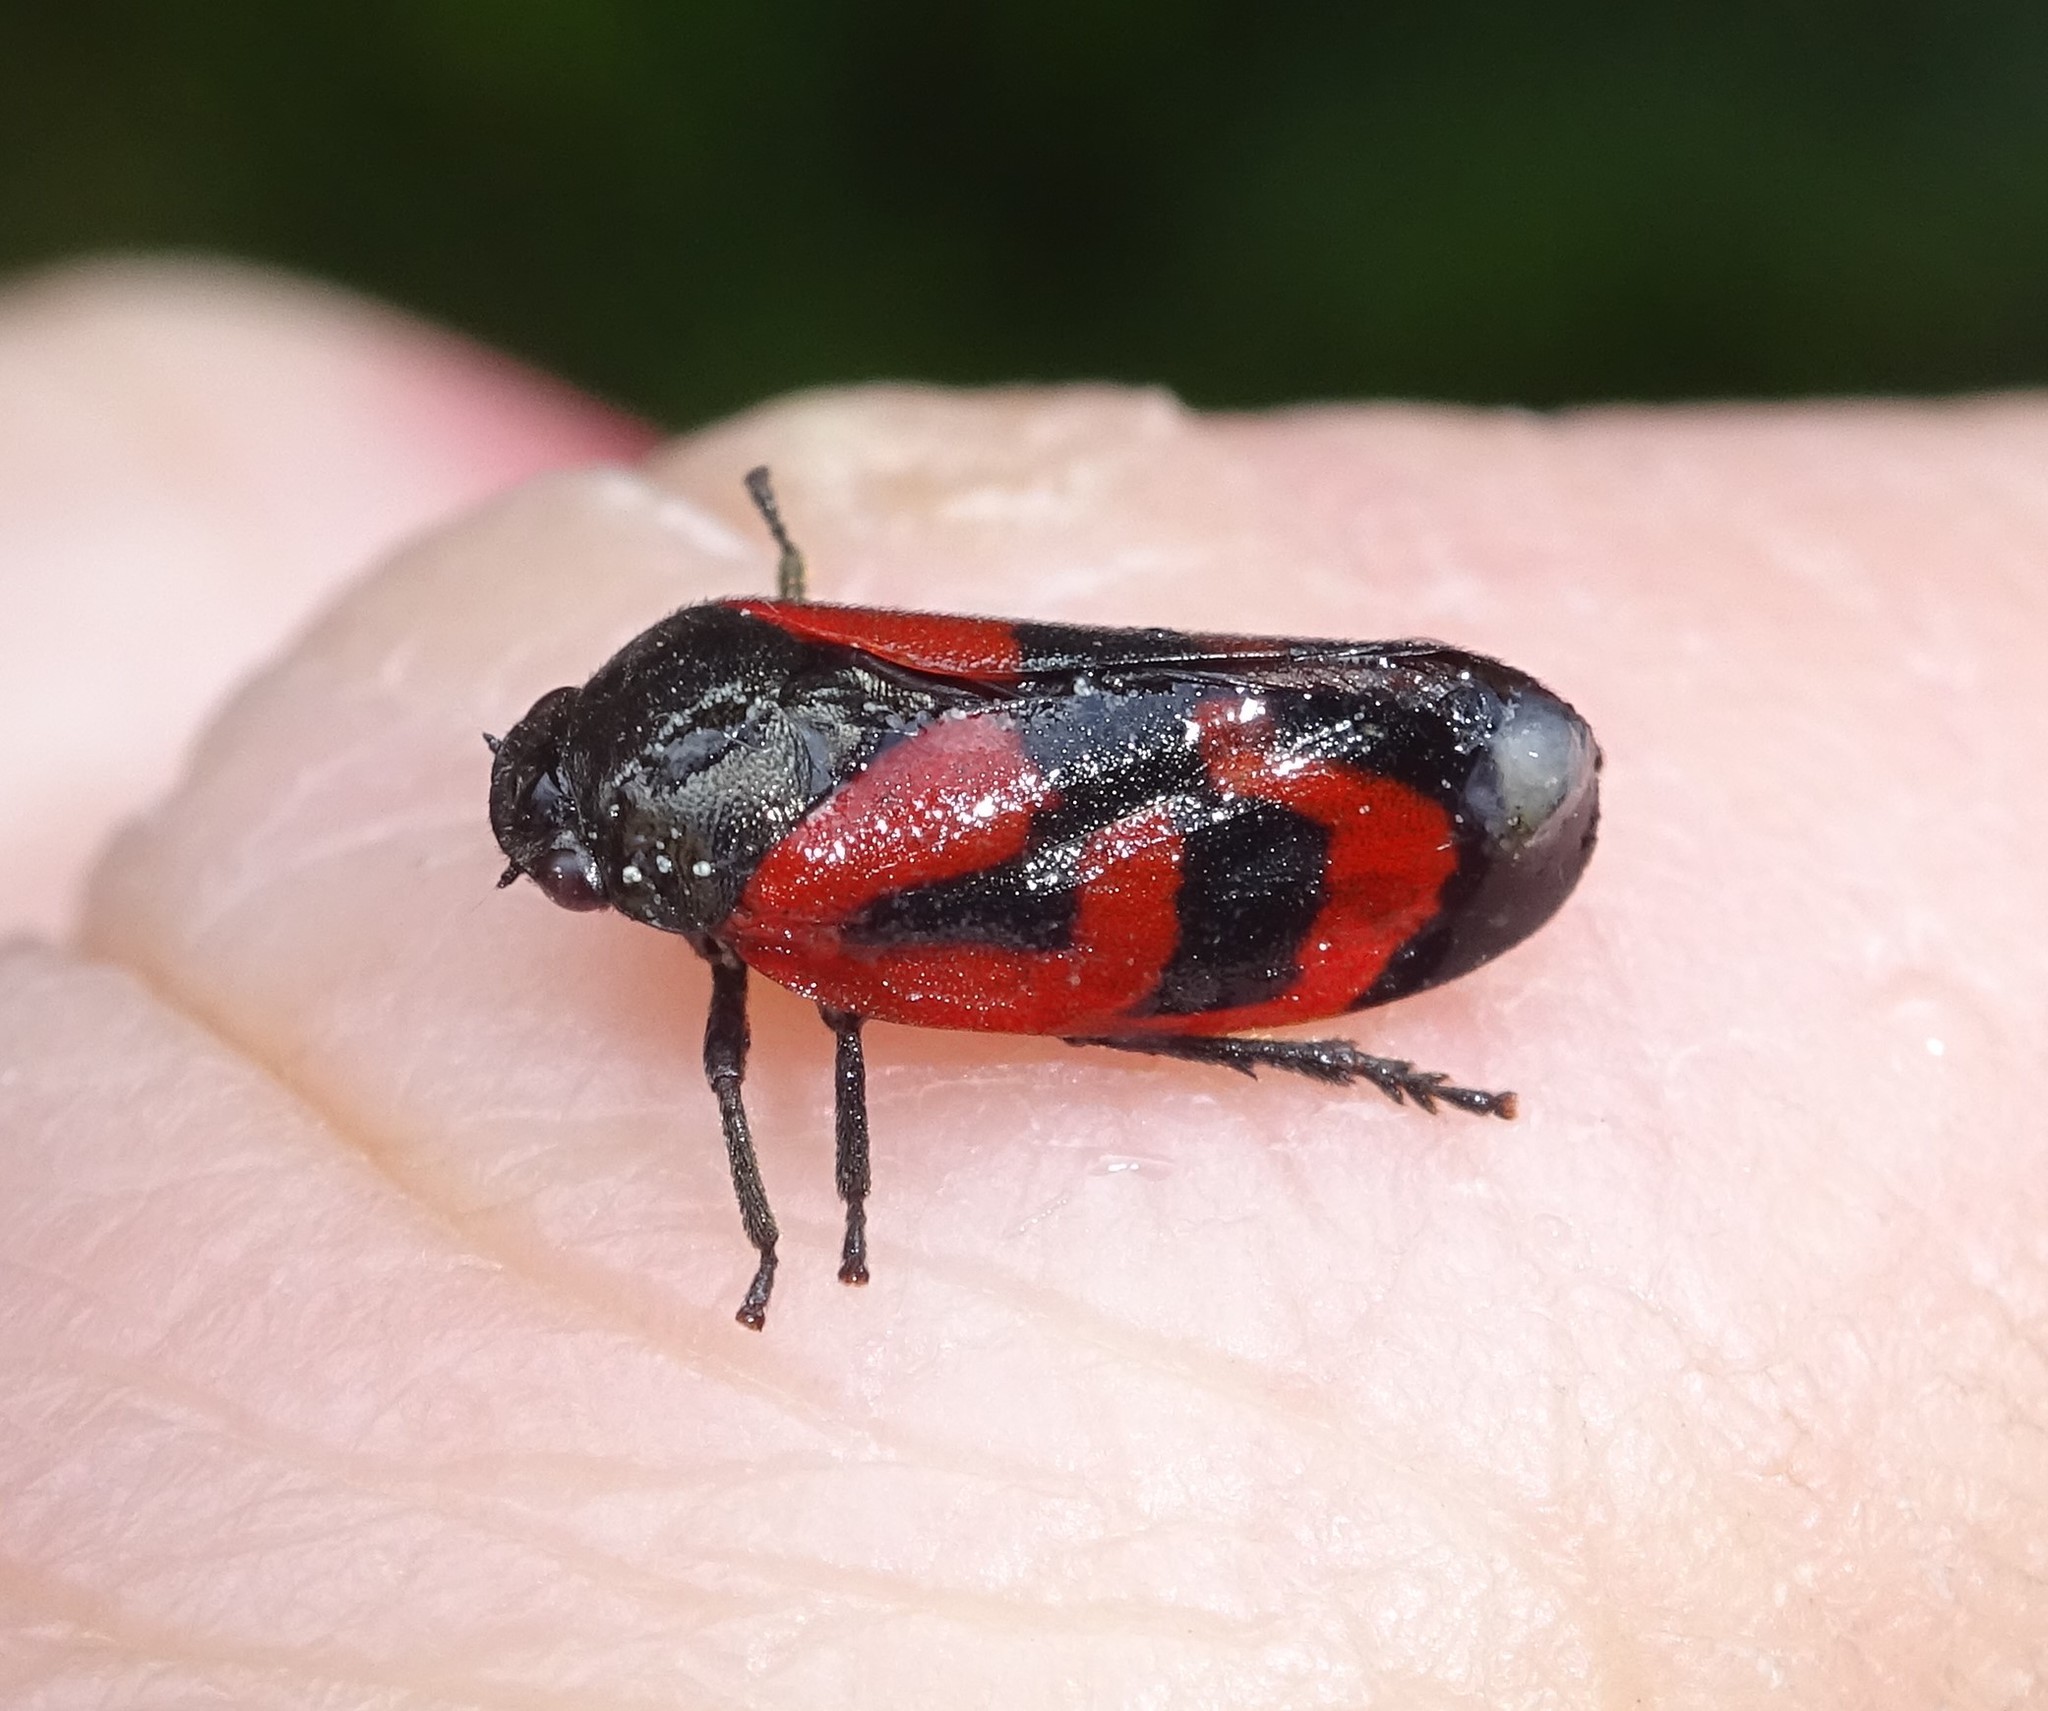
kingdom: Animalia
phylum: Arthropoda
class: Insecta
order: Hemiptera
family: Cercopidae
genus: Haematoloma
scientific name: Haematoloma dorsata
